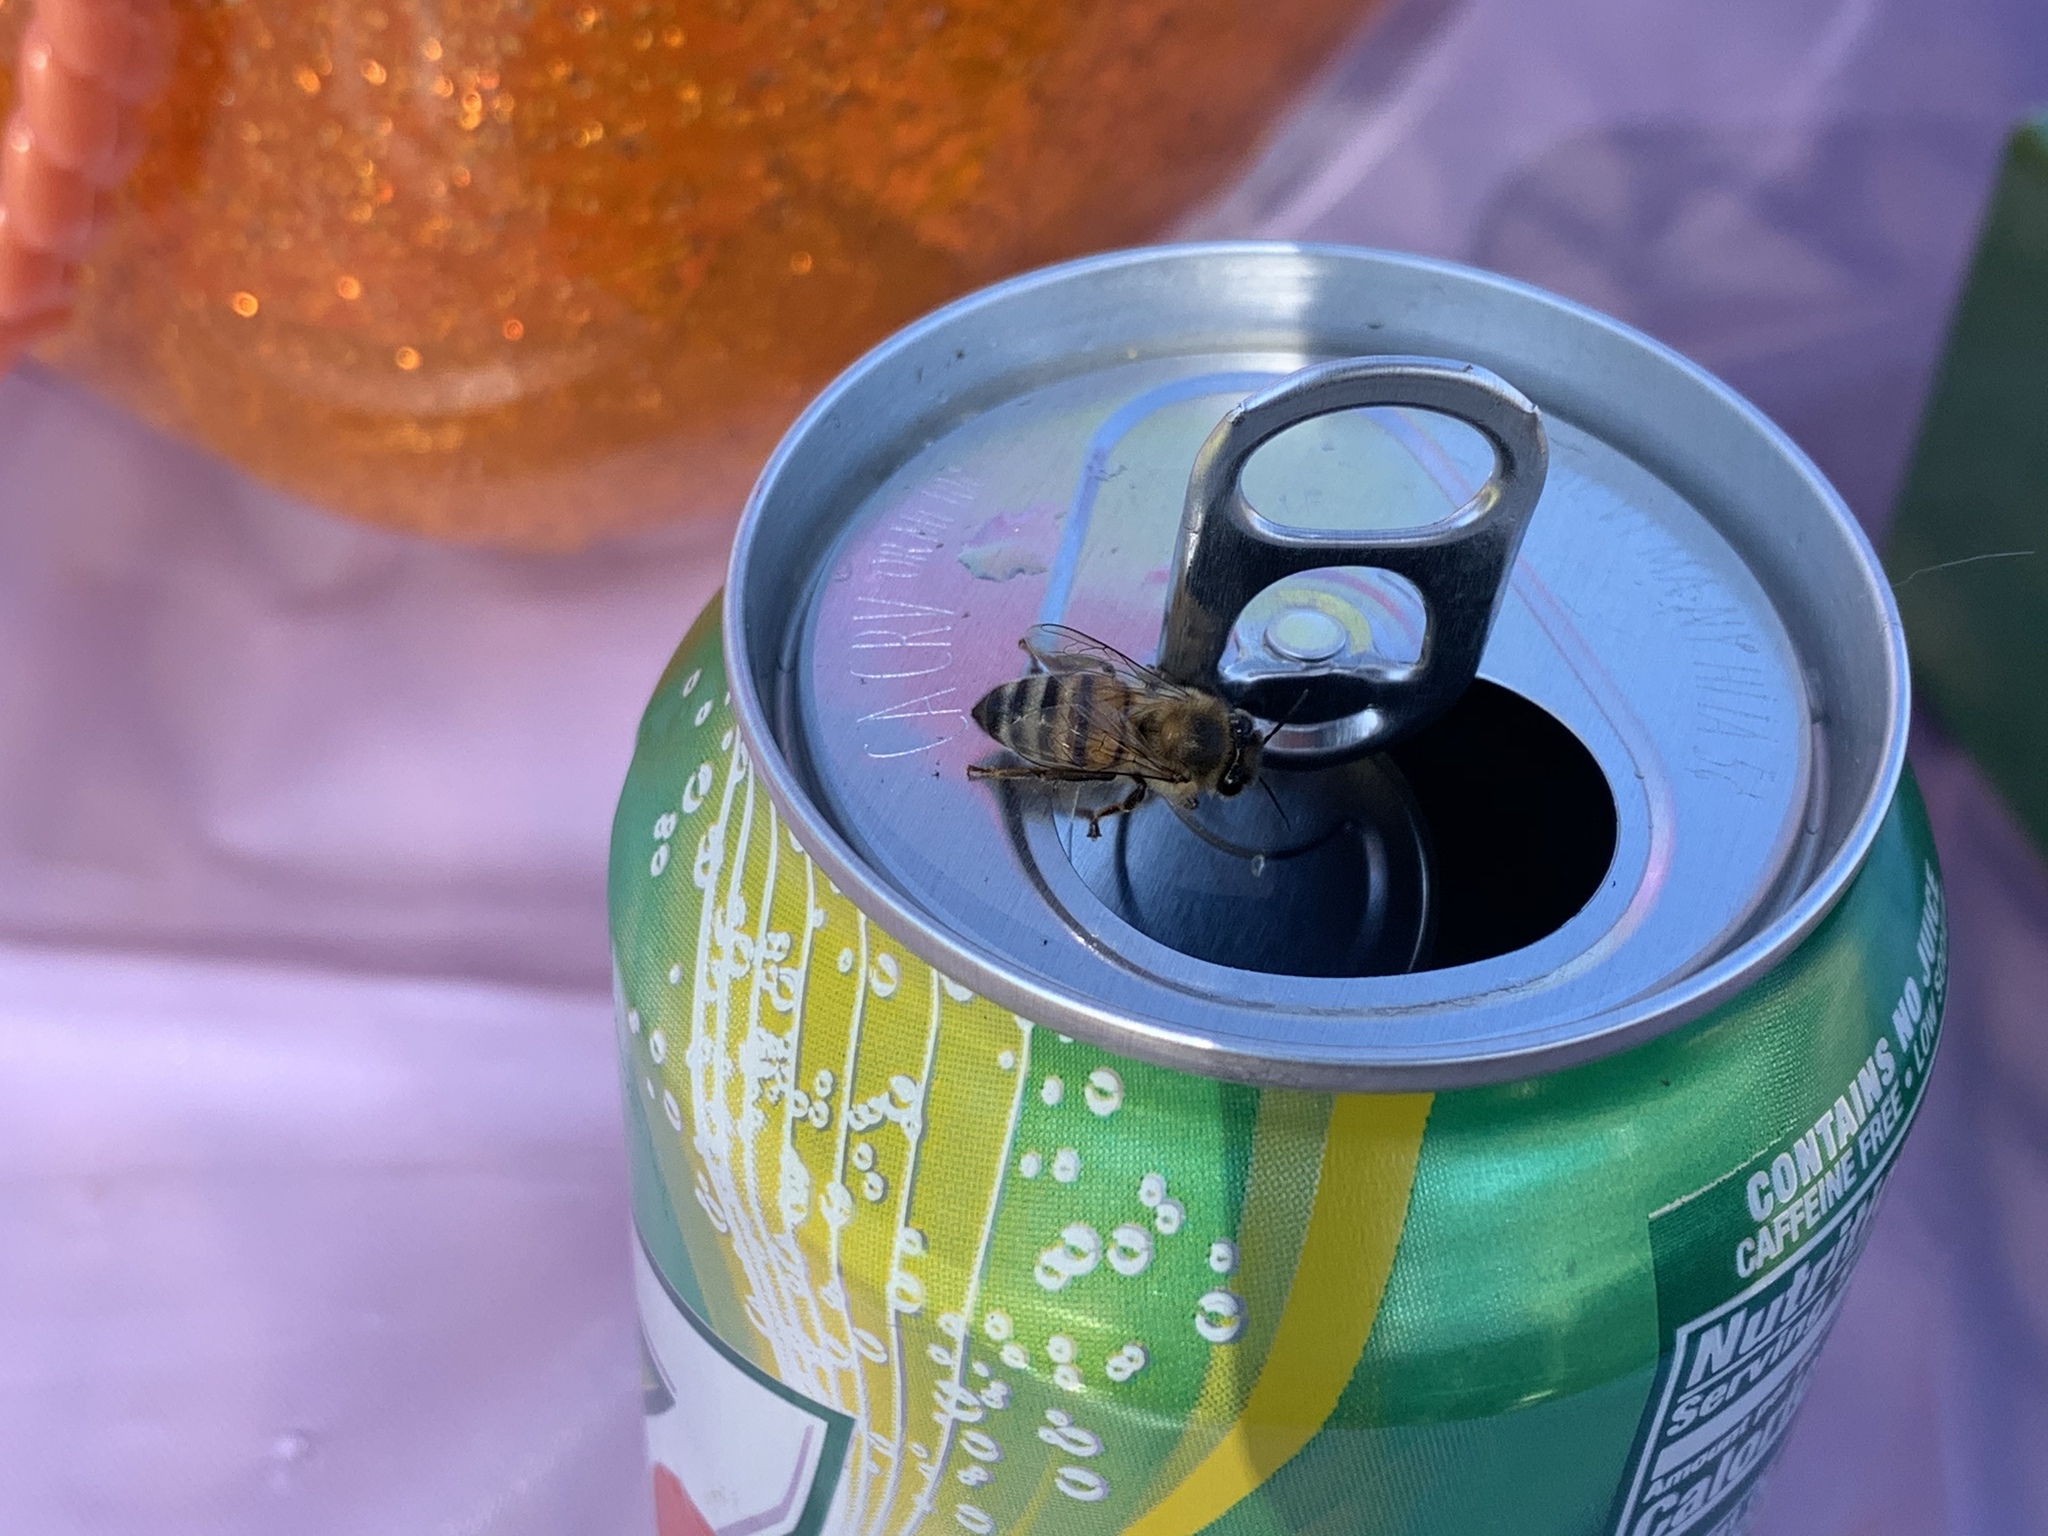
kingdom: Animalia
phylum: Arthropoda
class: Insecta
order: Hymenoptera
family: Apidae
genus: Apis
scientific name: Apis mellifera
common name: Honey bee
